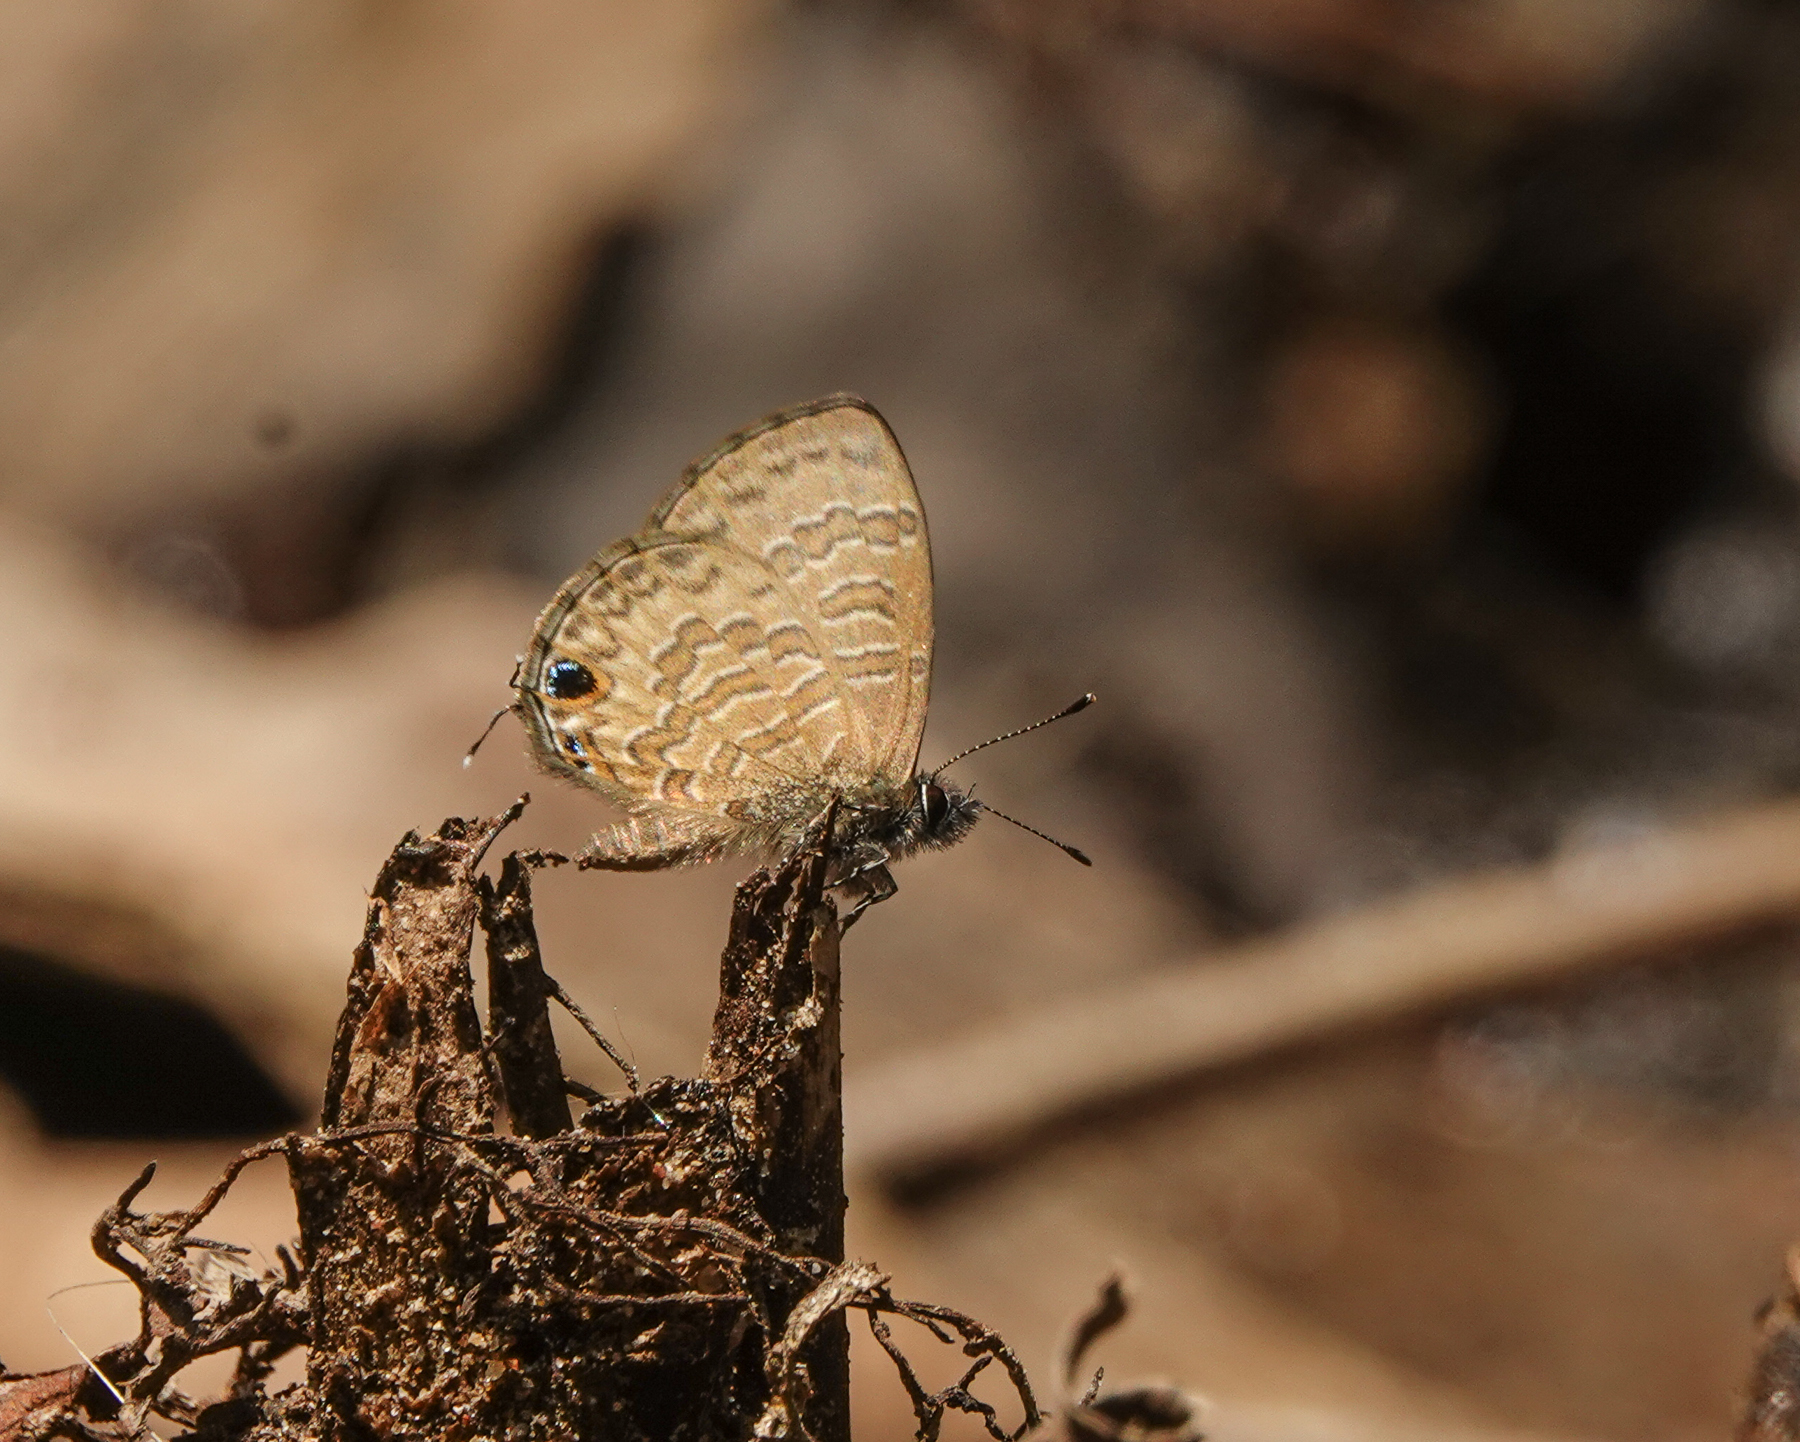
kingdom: Animalia
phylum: Arthropoda
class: Insecta
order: Lepidoptera
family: Lycaenidae
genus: Prosotas
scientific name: Prosotas nora
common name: Common line blue
